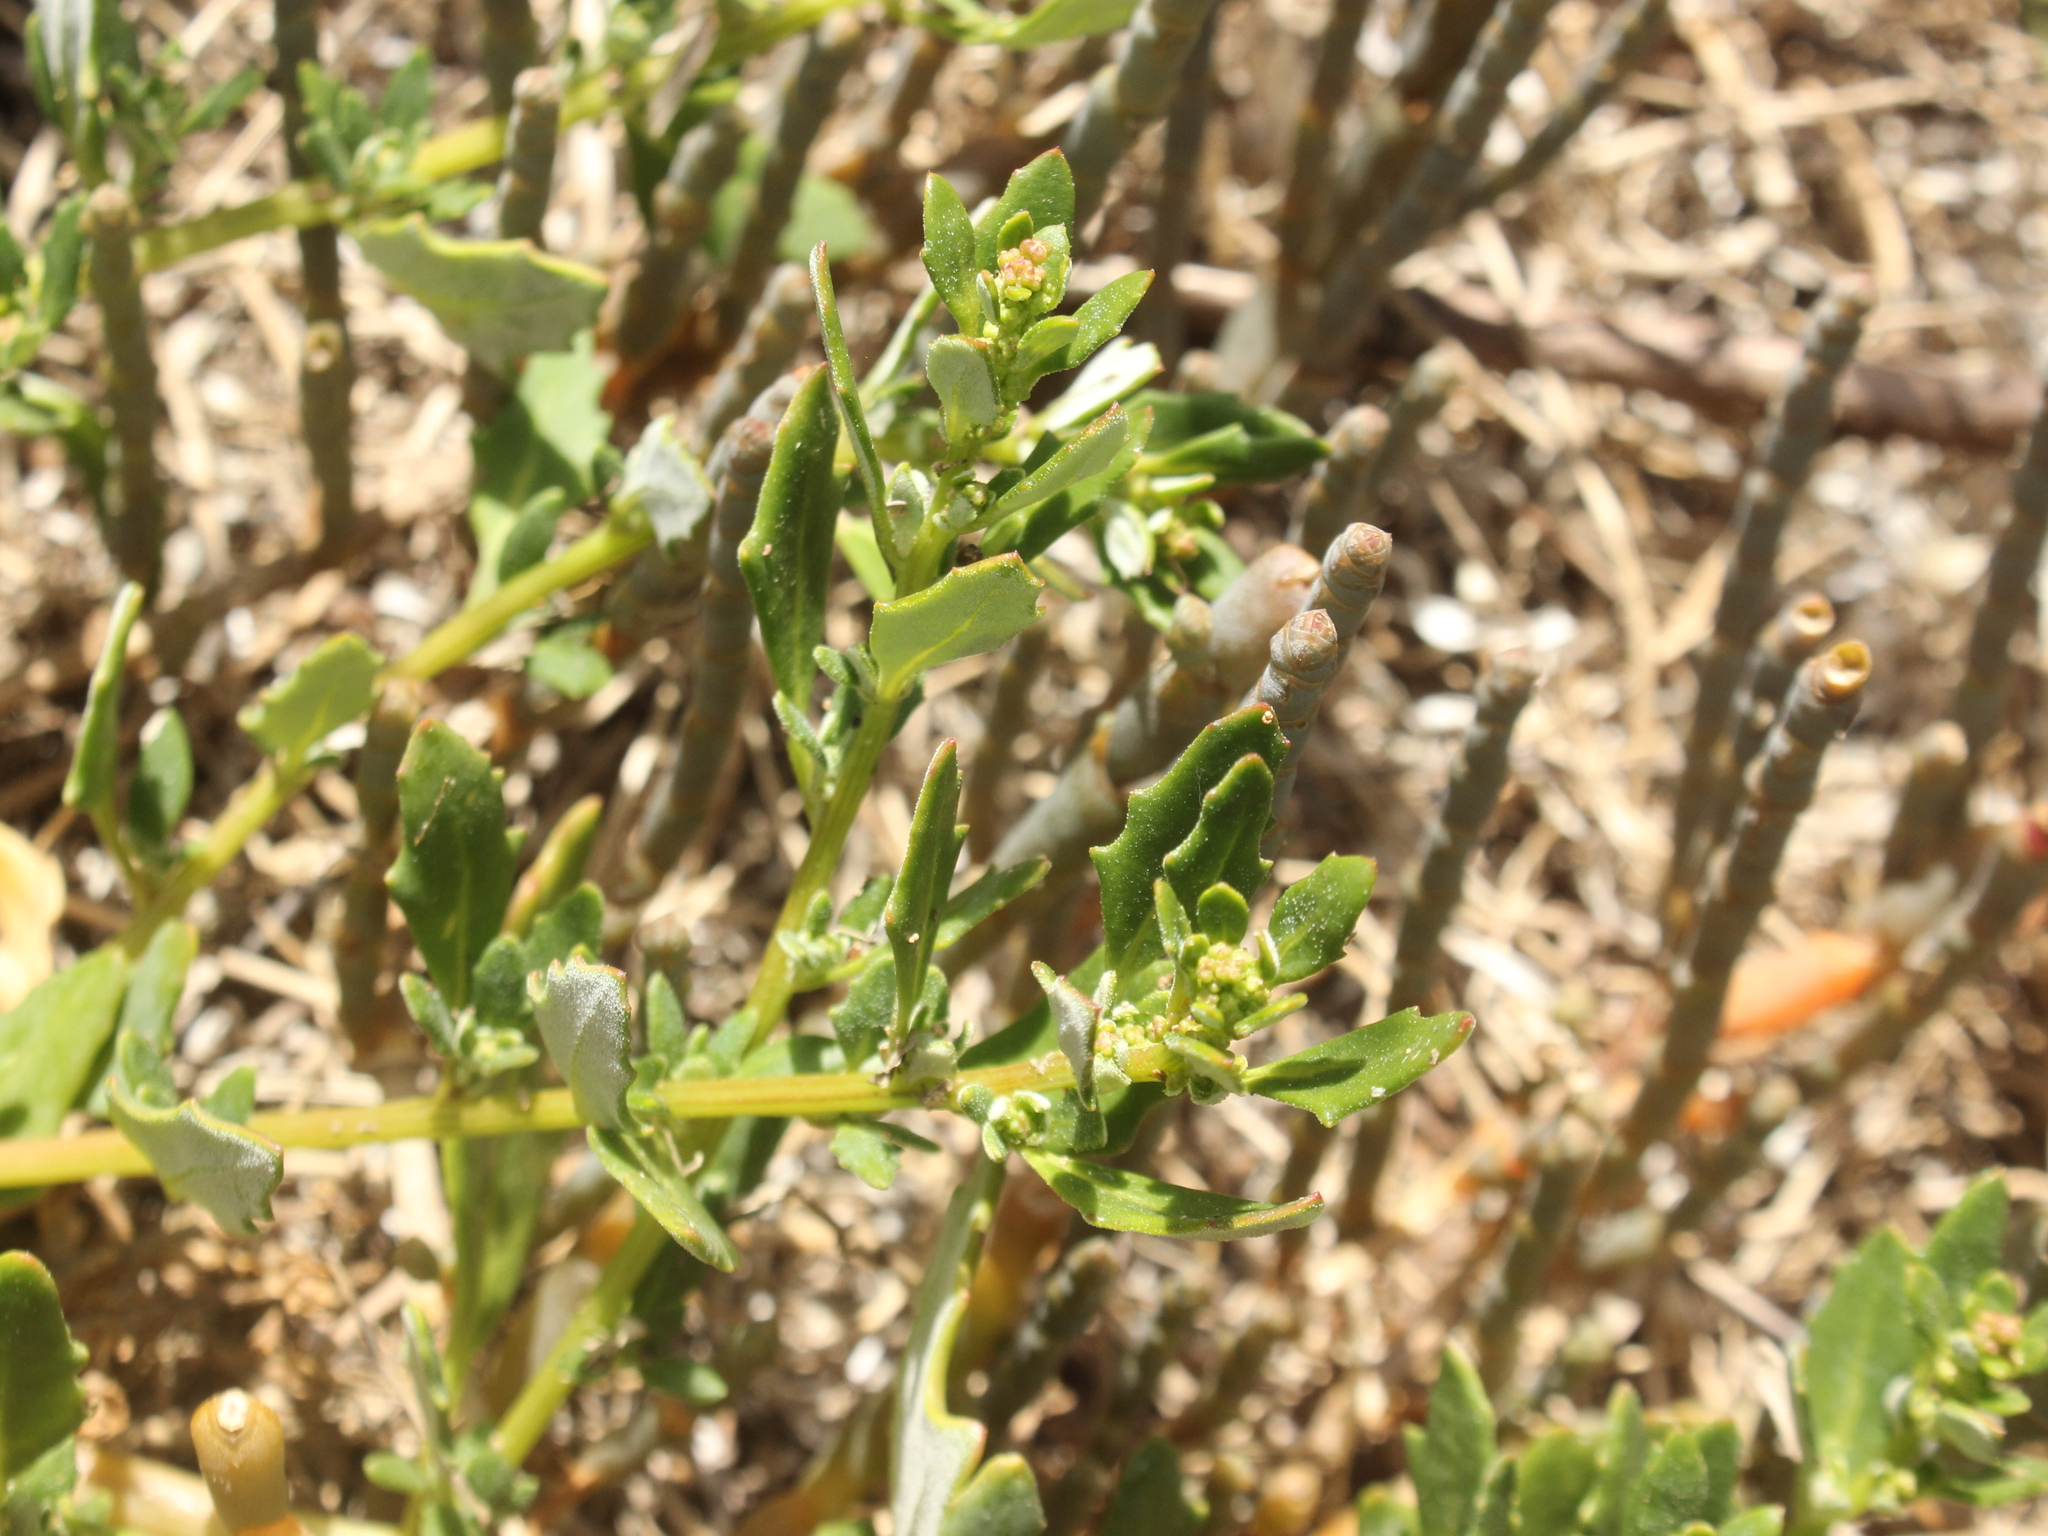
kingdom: Plantae
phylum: Tracheophyta
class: Magnoliopsida
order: Caryophyllales
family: Amaranthaceae
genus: Oxybasis
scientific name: Oxybasis ambigua
